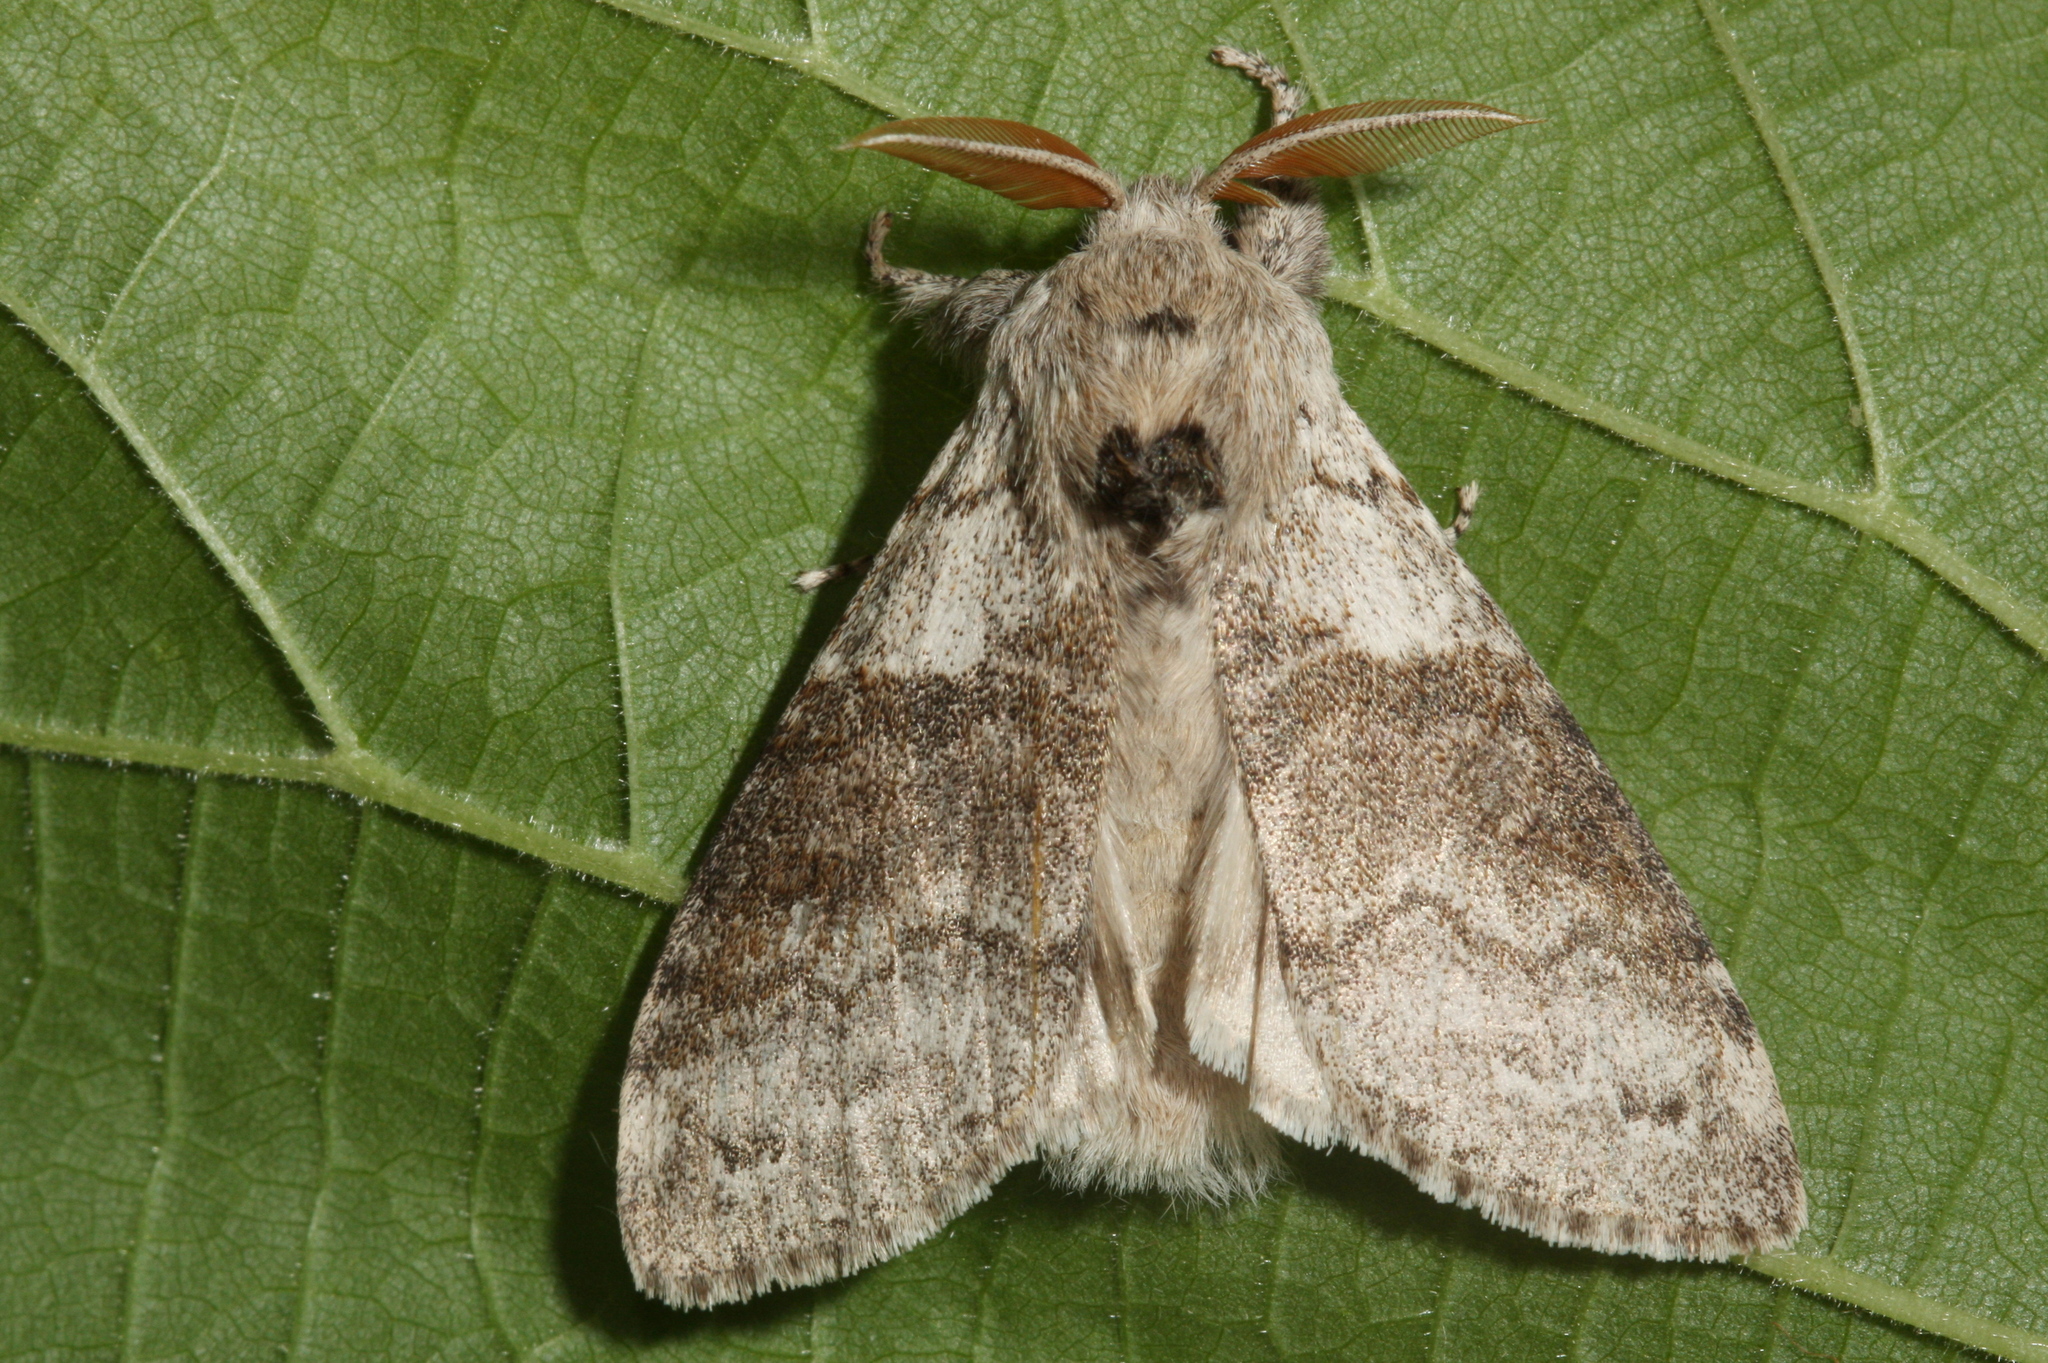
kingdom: Animalia
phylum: Arthropoda
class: Insecta
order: Lepidoptera
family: Erebidae
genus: Calliteara
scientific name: Calliteara pudibunda
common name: Pale tussock
